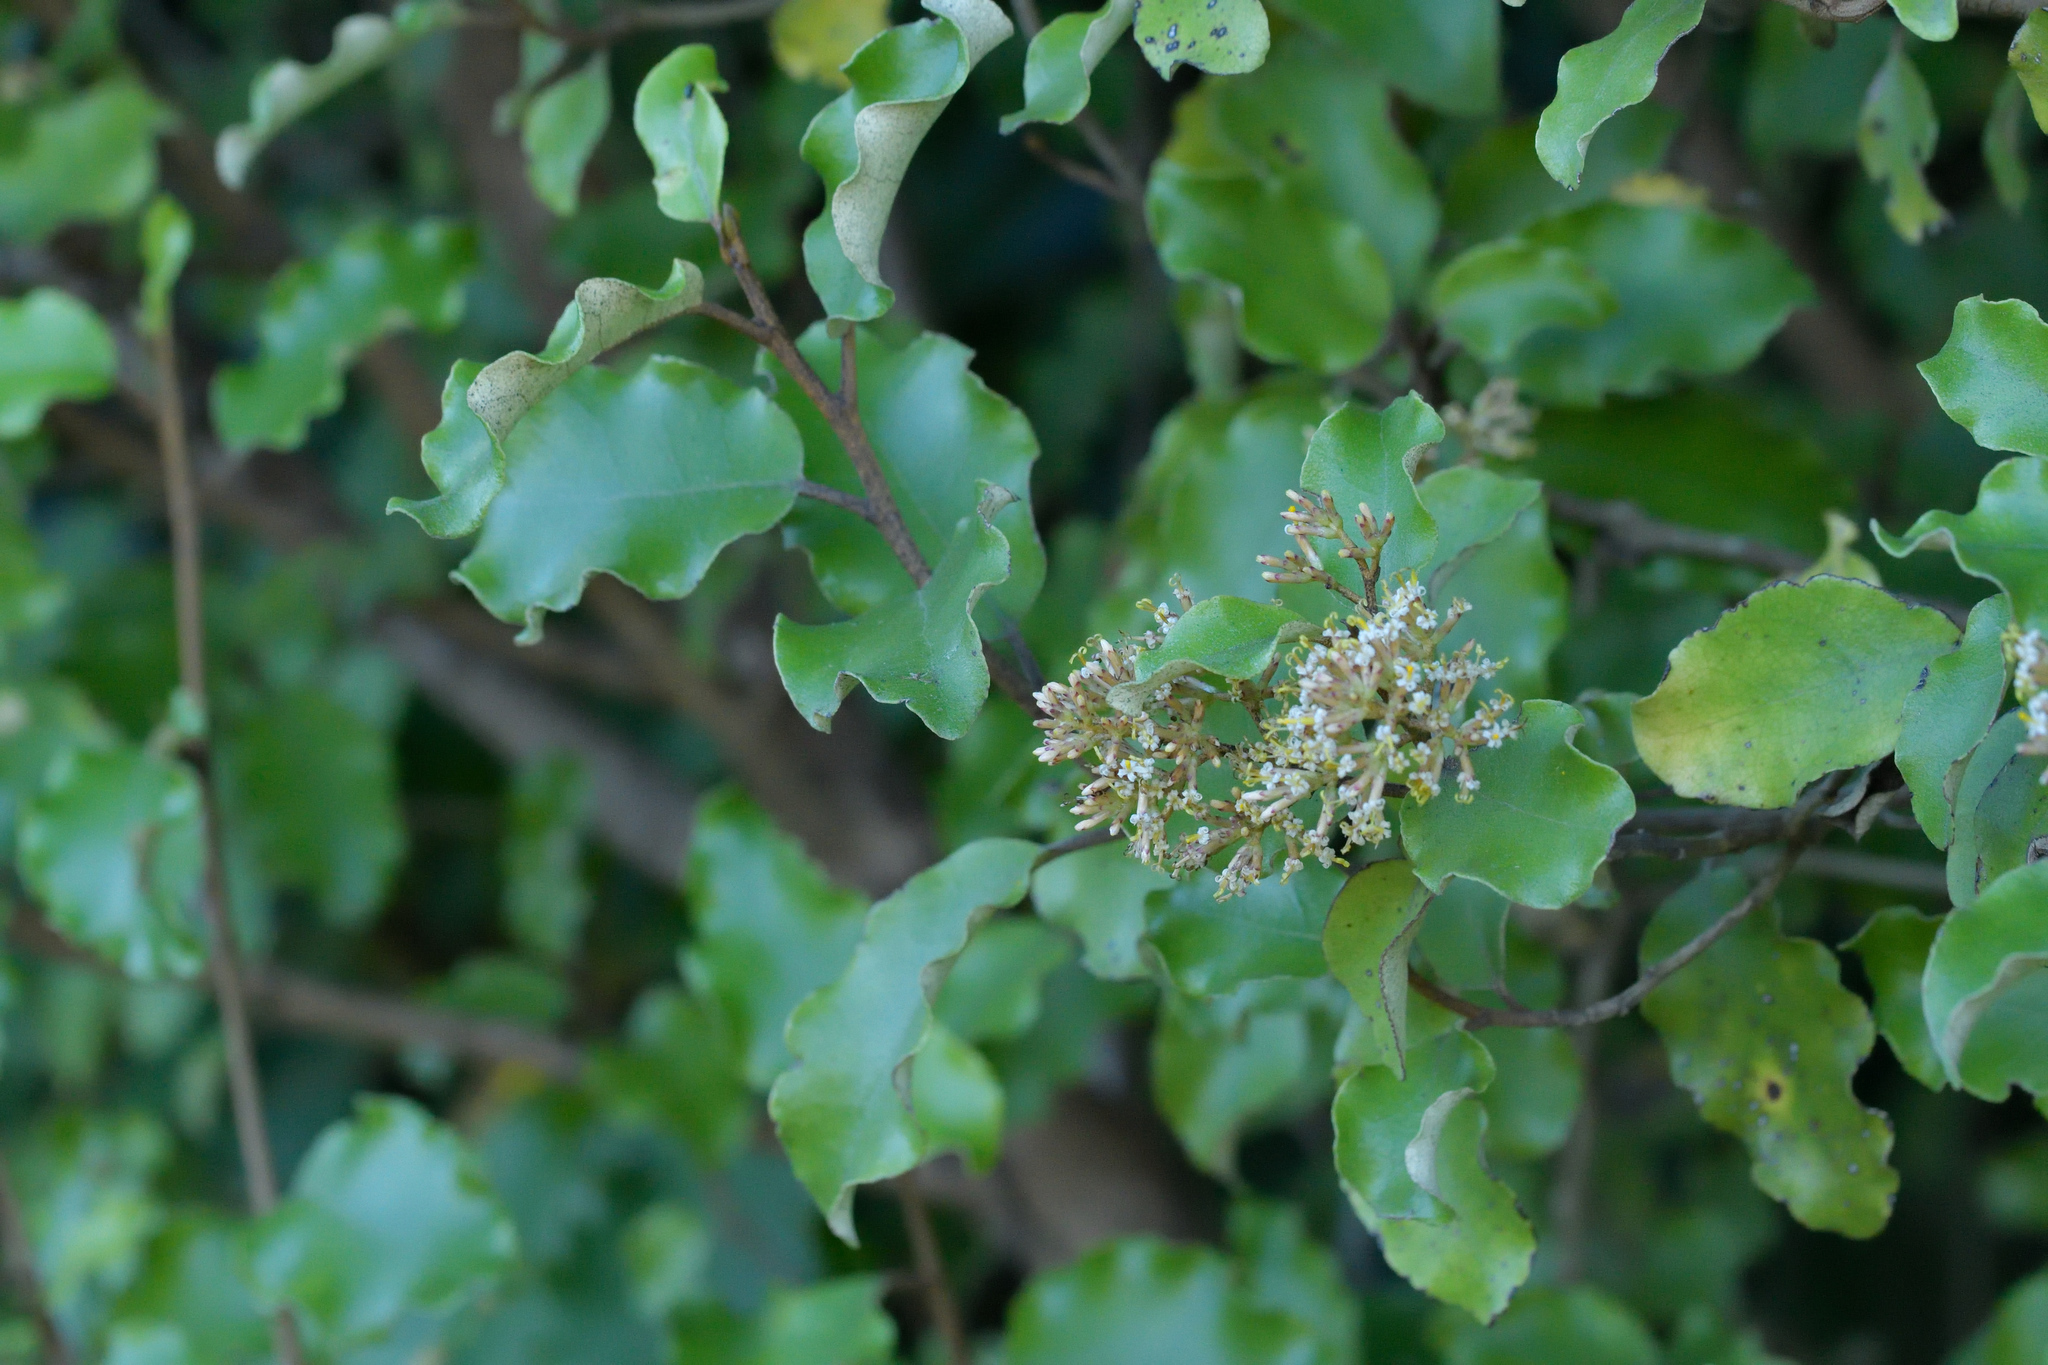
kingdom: Plantae
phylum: Tracheophyta
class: Magnoliopsida
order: Asterales
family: Asteraceae
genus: Olearia
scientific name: Olearia paniculata
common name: Akiraho
